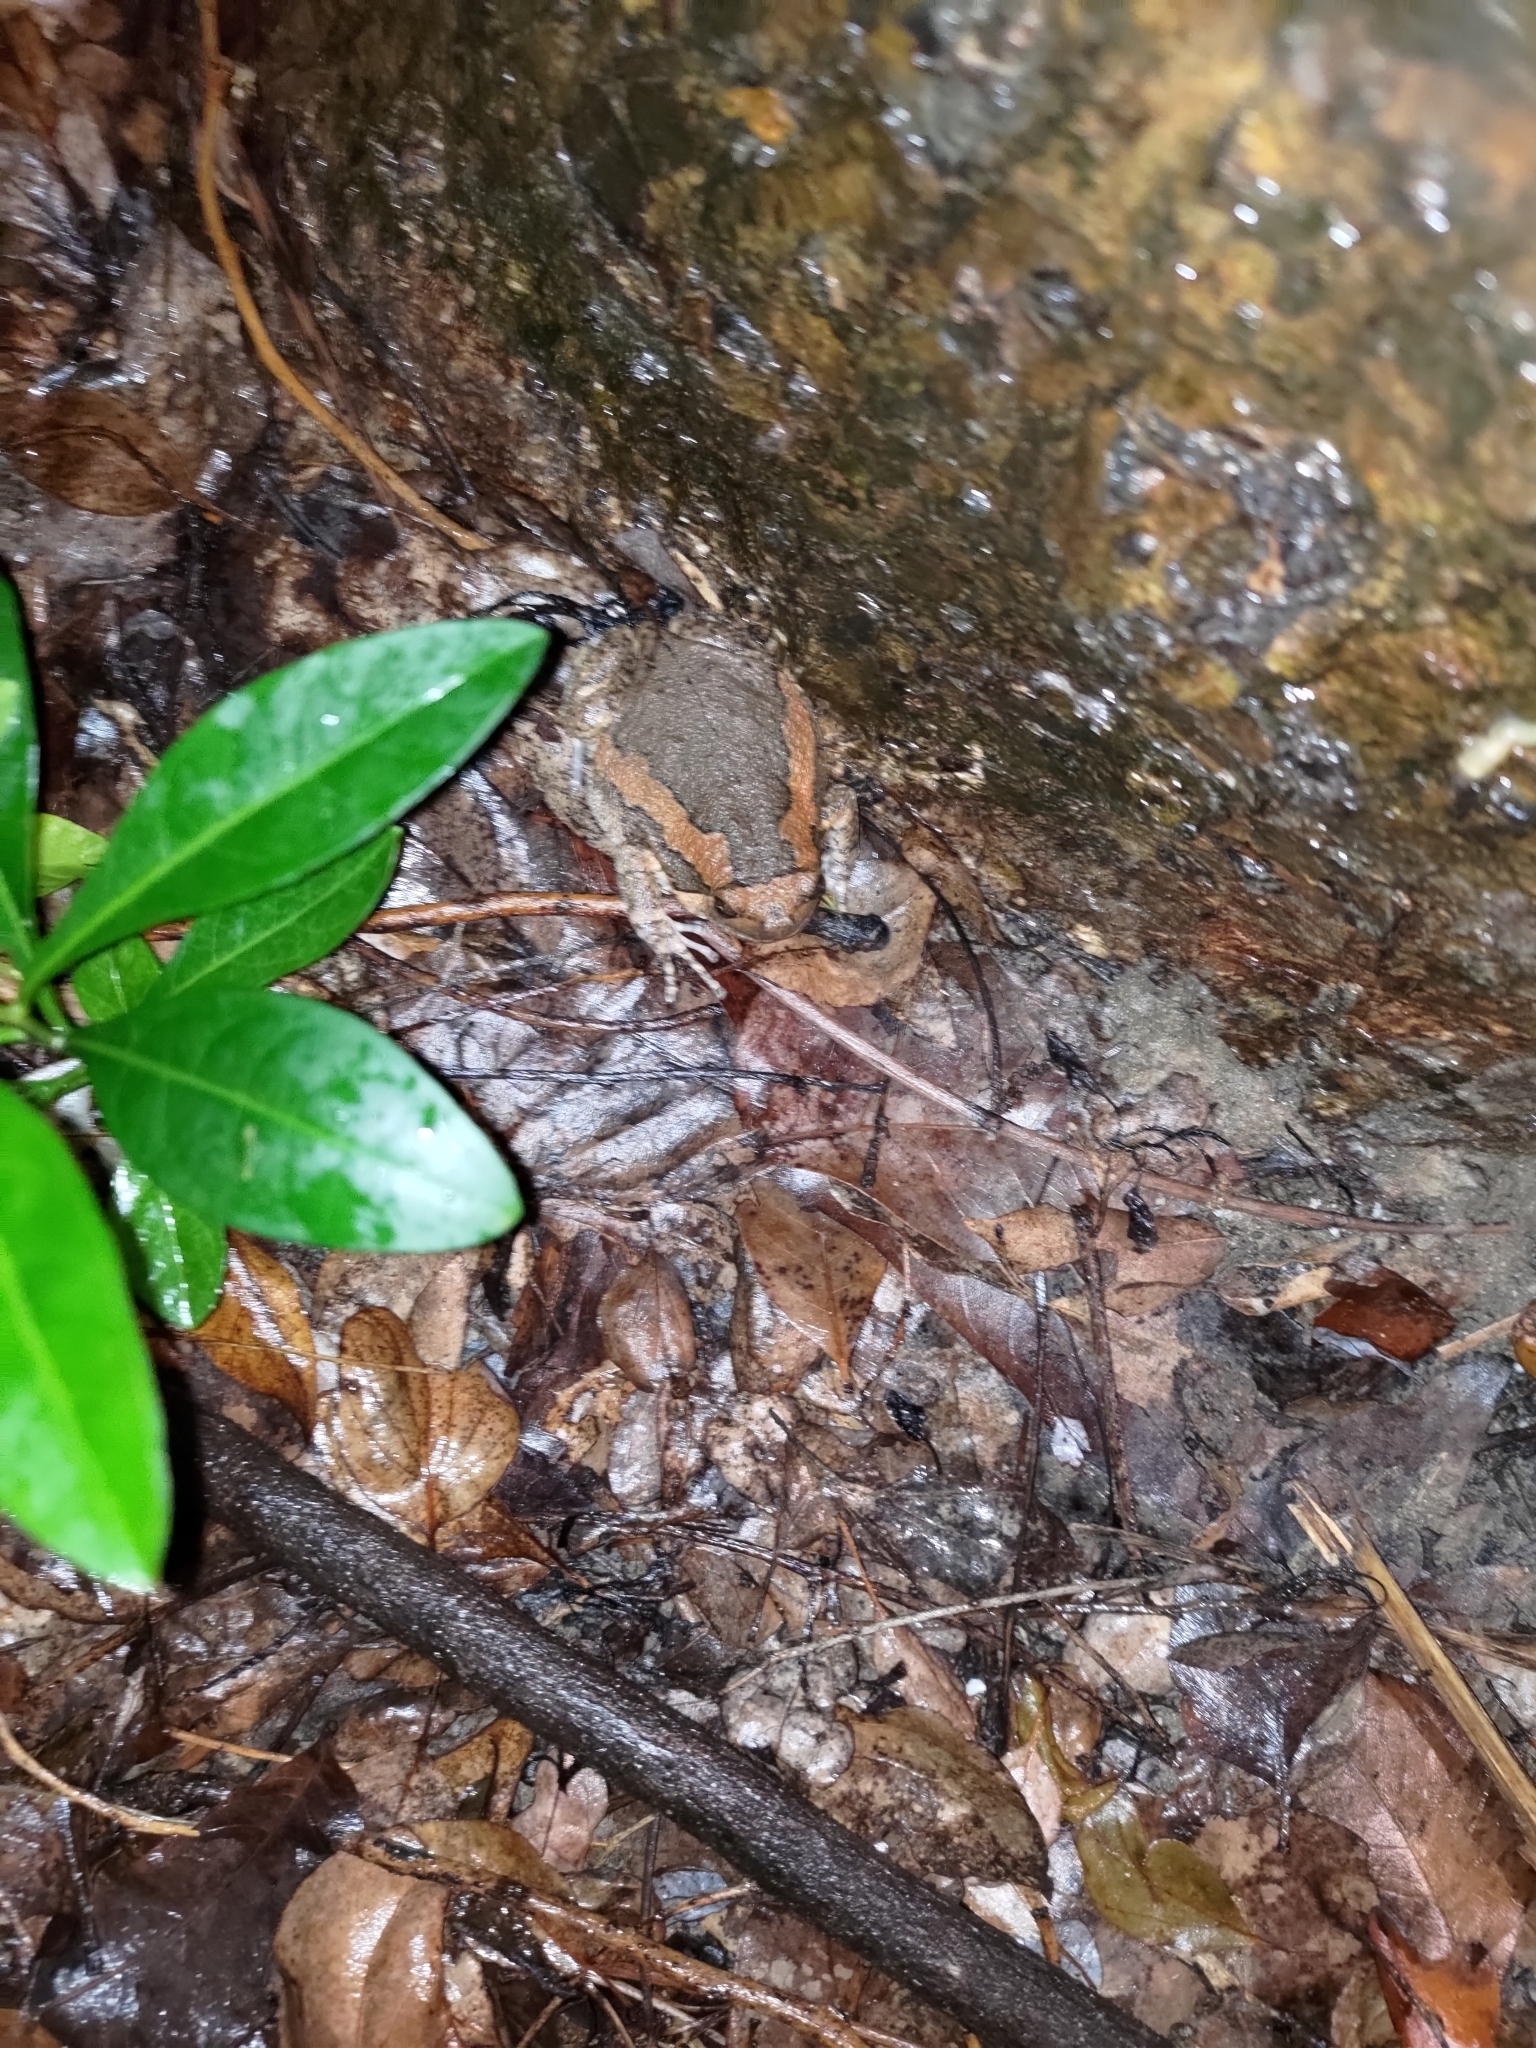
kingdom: Animalia
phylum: Chordata
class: Amphibia
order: Anura
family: Microhylidae
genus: Kaloula
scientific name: Kaloula pulchra
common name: Common,banded bullfrog
